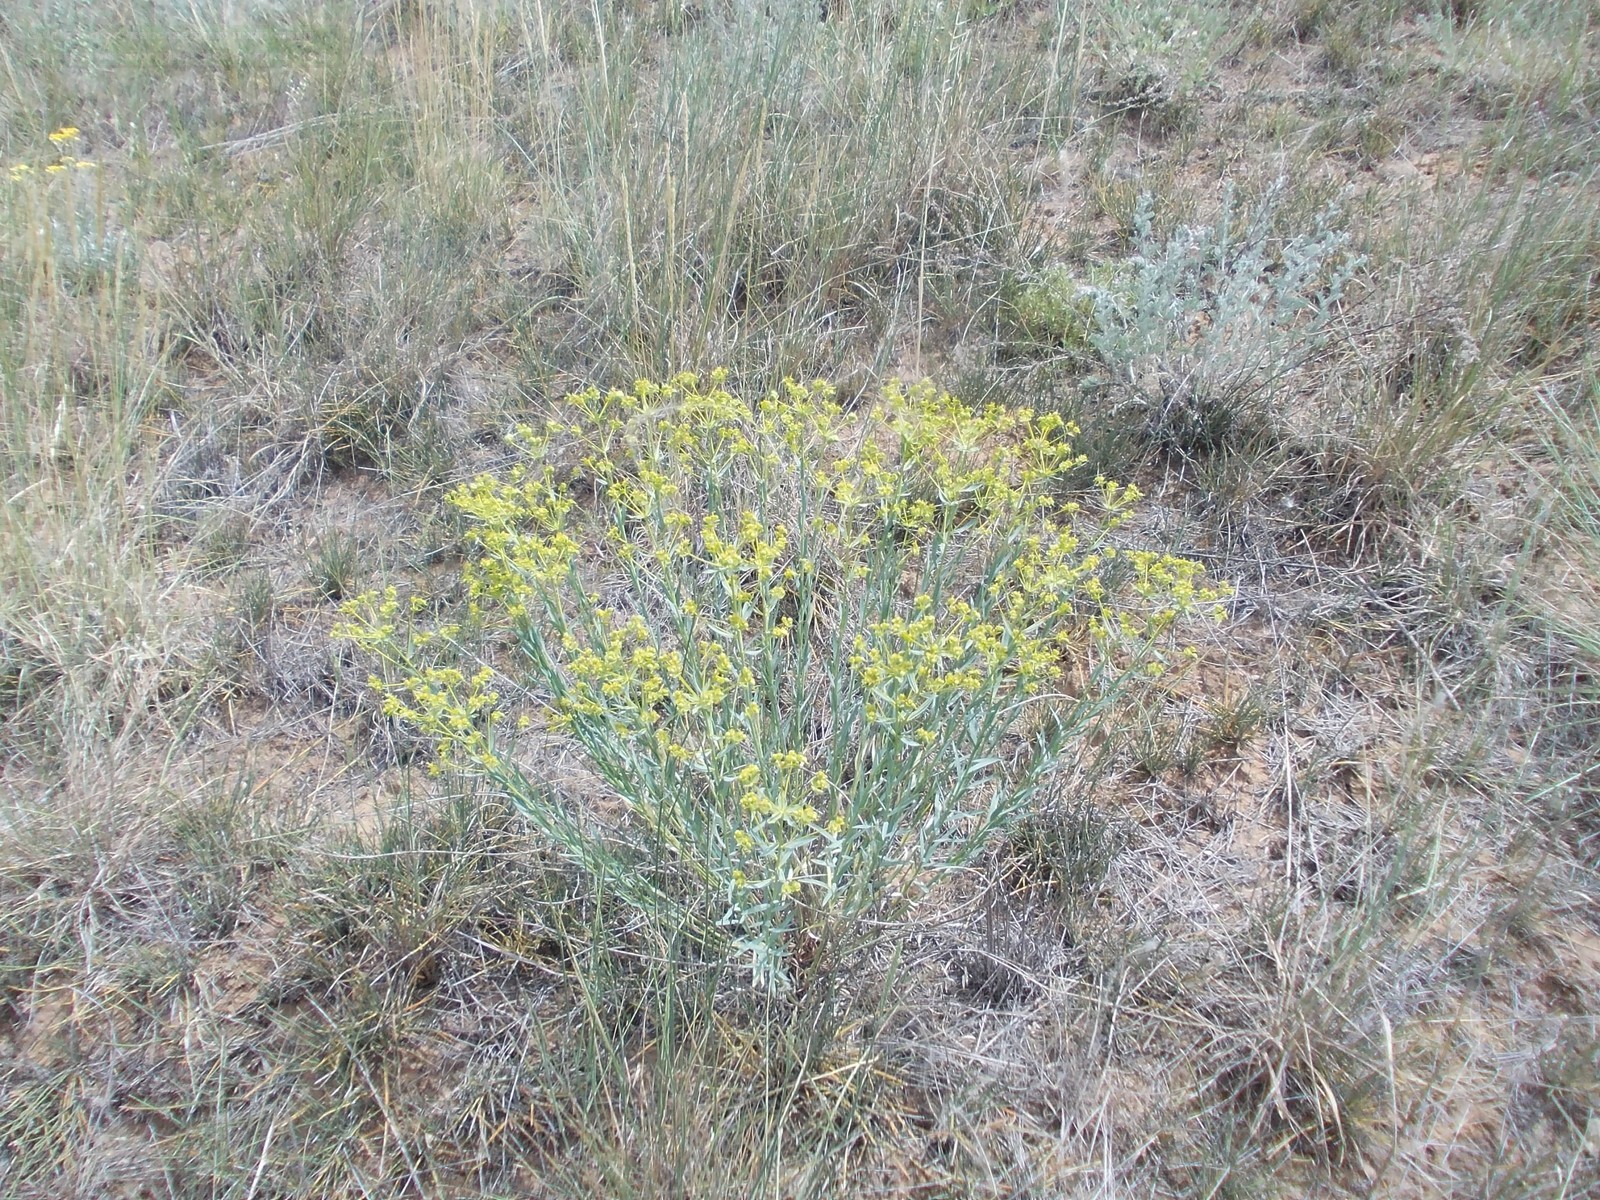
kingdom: Plantae
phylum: Tracheophyta
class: Magnoliopsida
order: Malpighiales
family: Euphorbiaceae
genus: Euphorbia
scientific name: Euphorbia seguieriana
